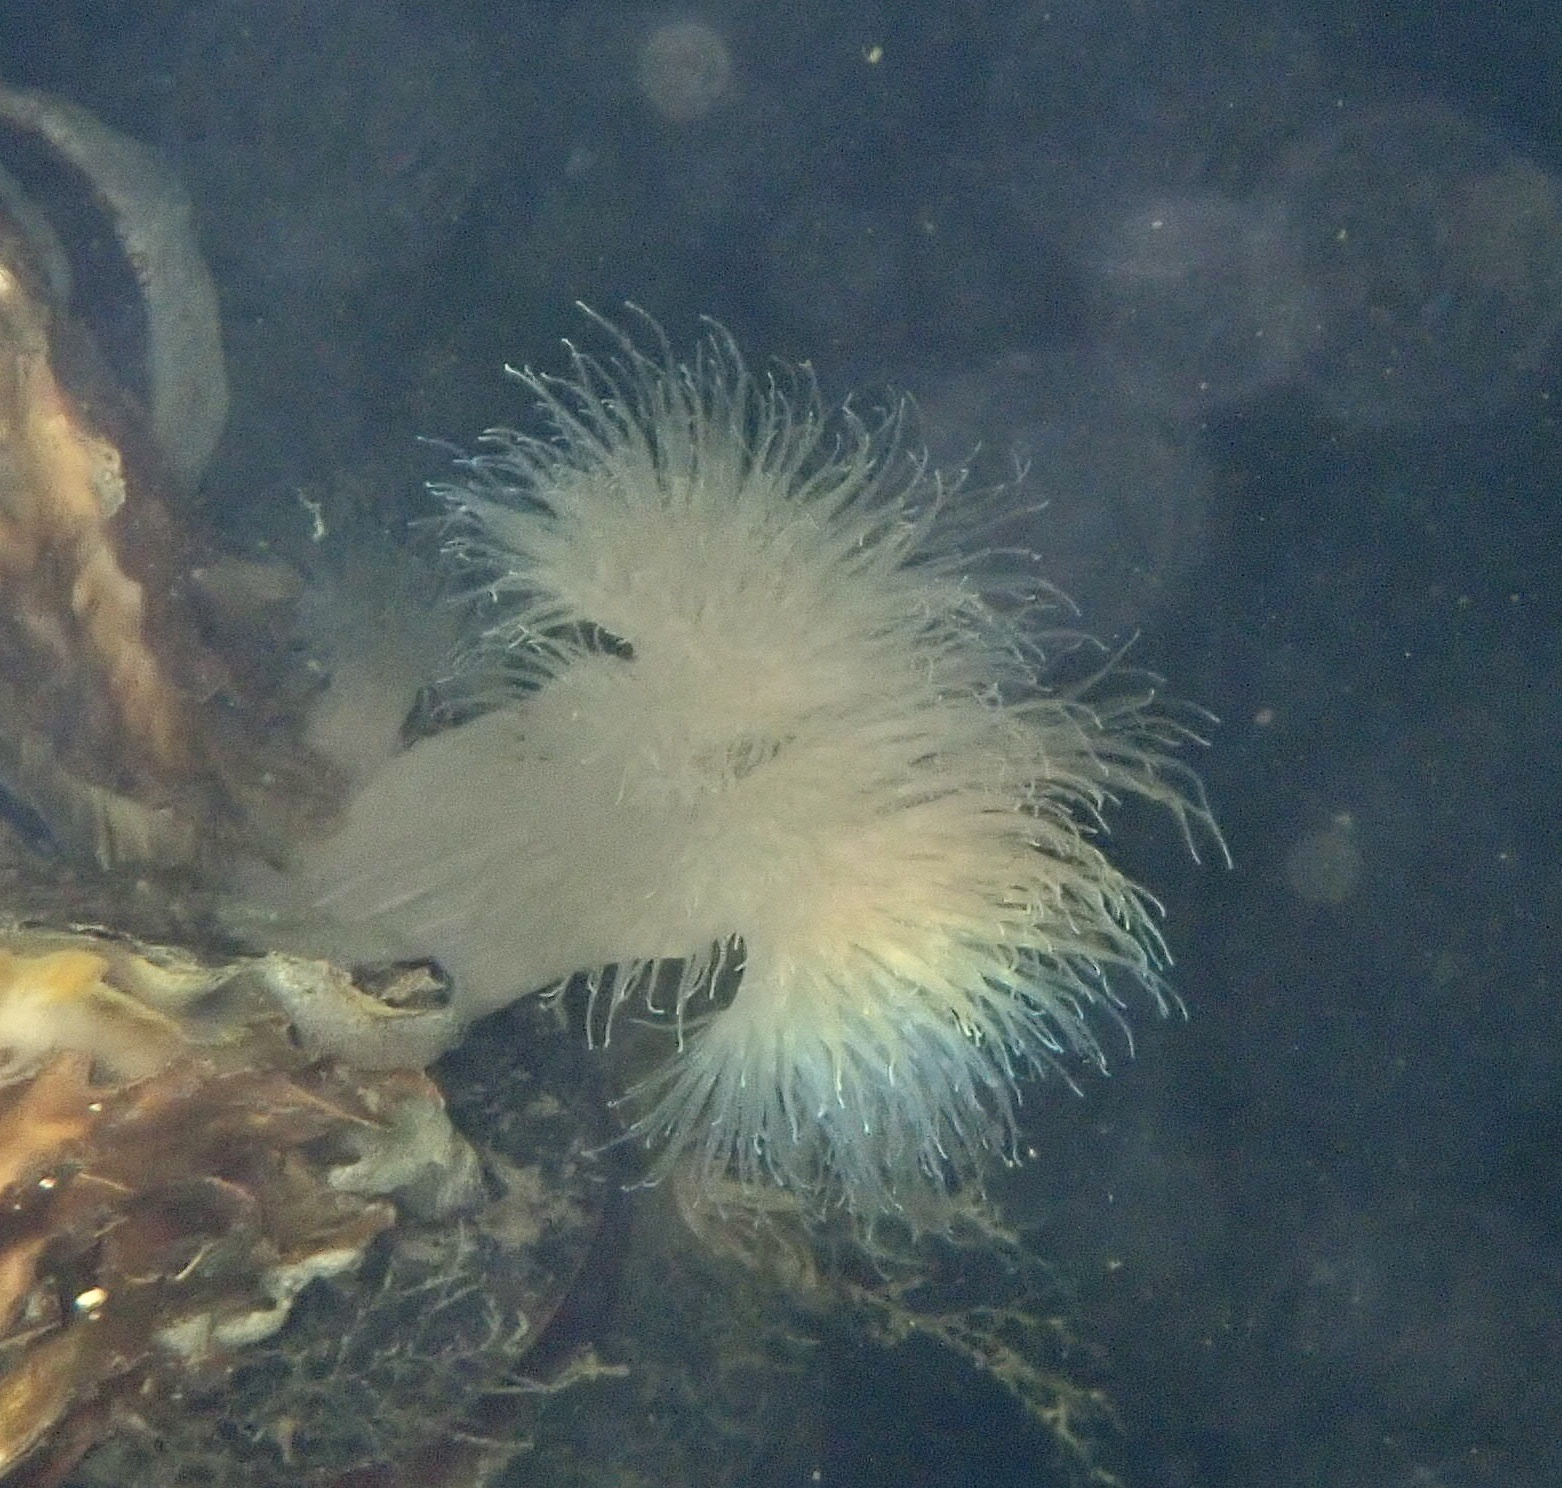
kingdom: Animalia
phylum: Cnidaria
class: Anthozoa
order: Actiniaria
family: Metridiidae
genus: Metridium
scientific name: Metridium senile
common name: Clonal plumose anemone
